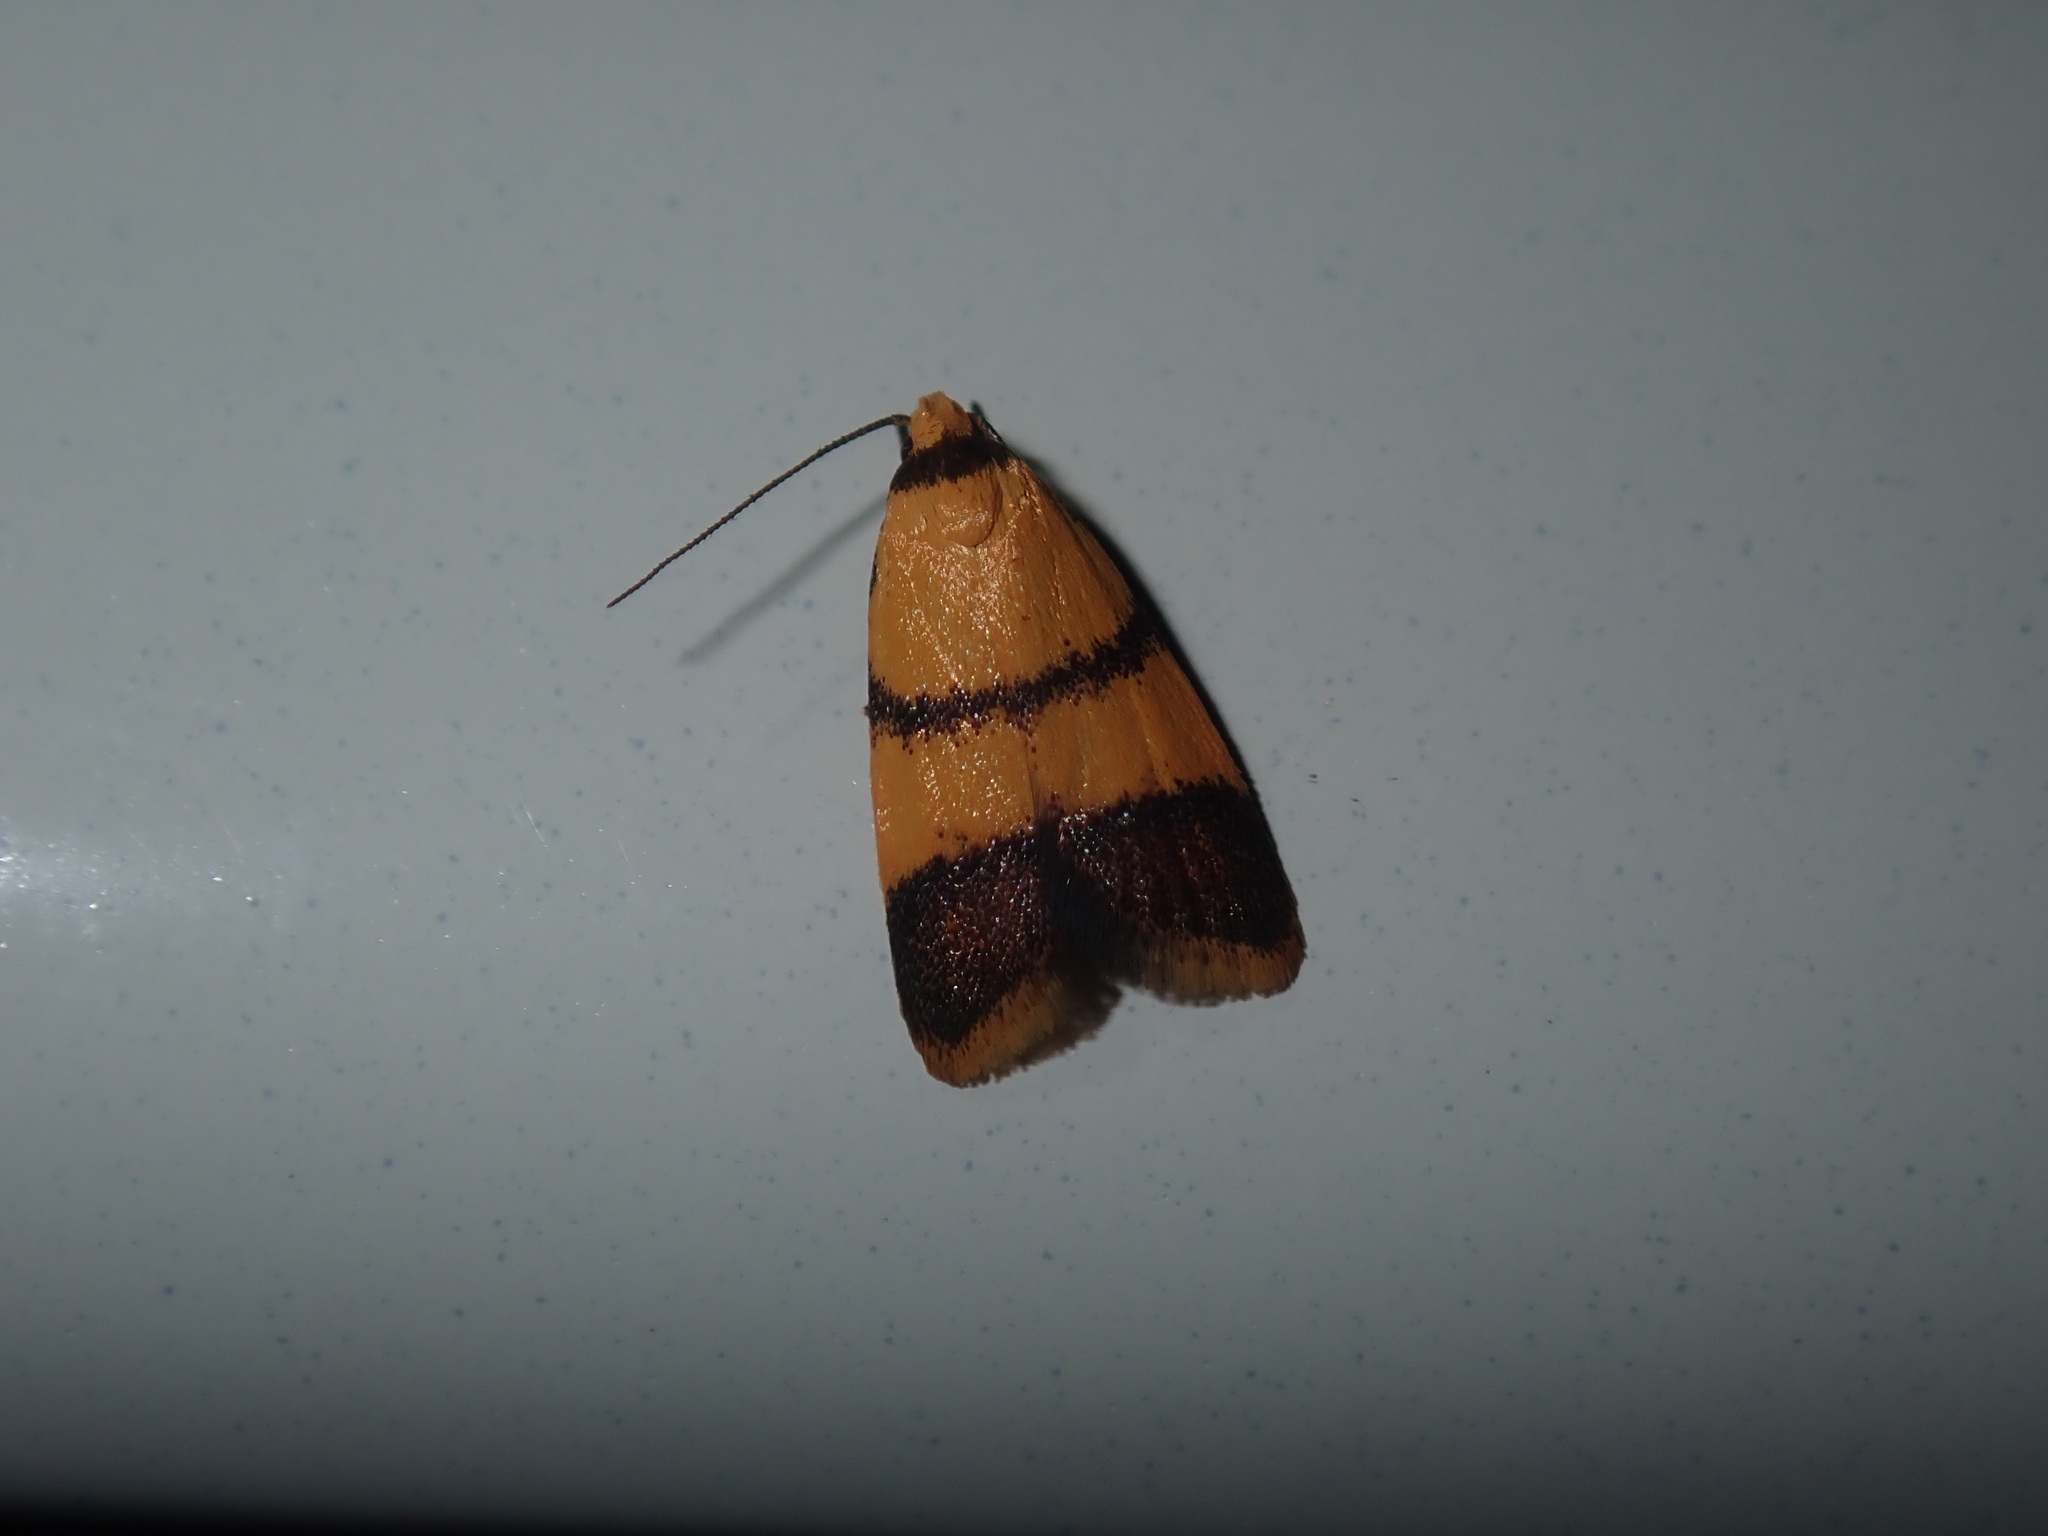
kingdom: Animalia
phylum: Arthropoda
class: Insecta
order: Lepidoptera
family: Oecophoridae
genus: Heteroteucha
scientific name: Heteroteucha translatella
